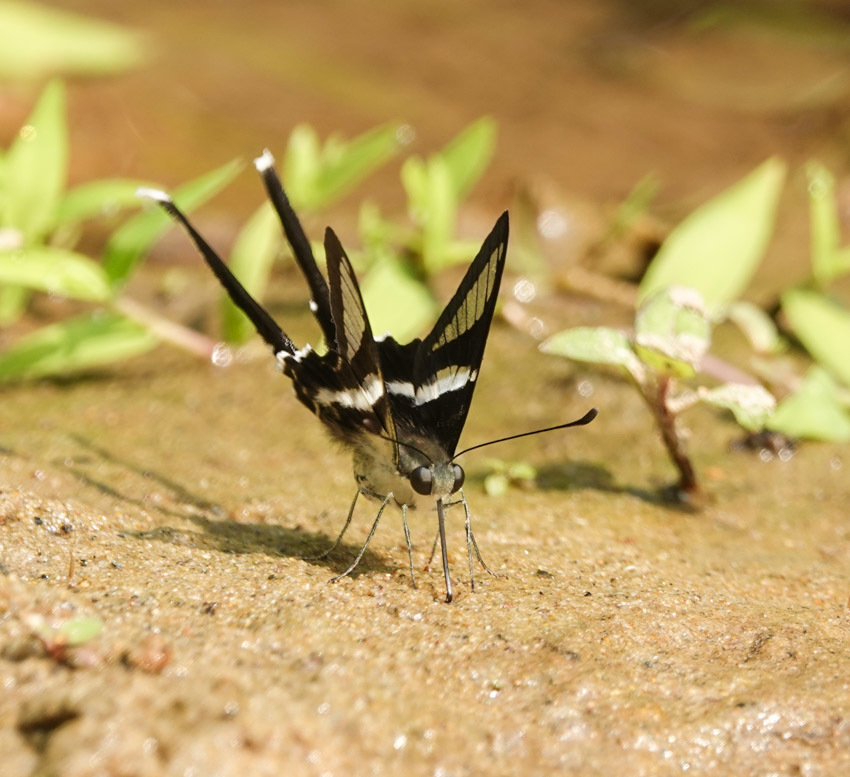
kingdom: Animalia
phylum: Arthropoda
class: Insecta
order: Lepidoptera
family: Papilionidae
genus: Lamproptera
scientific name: Lamproptera curius
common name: White dragontail
